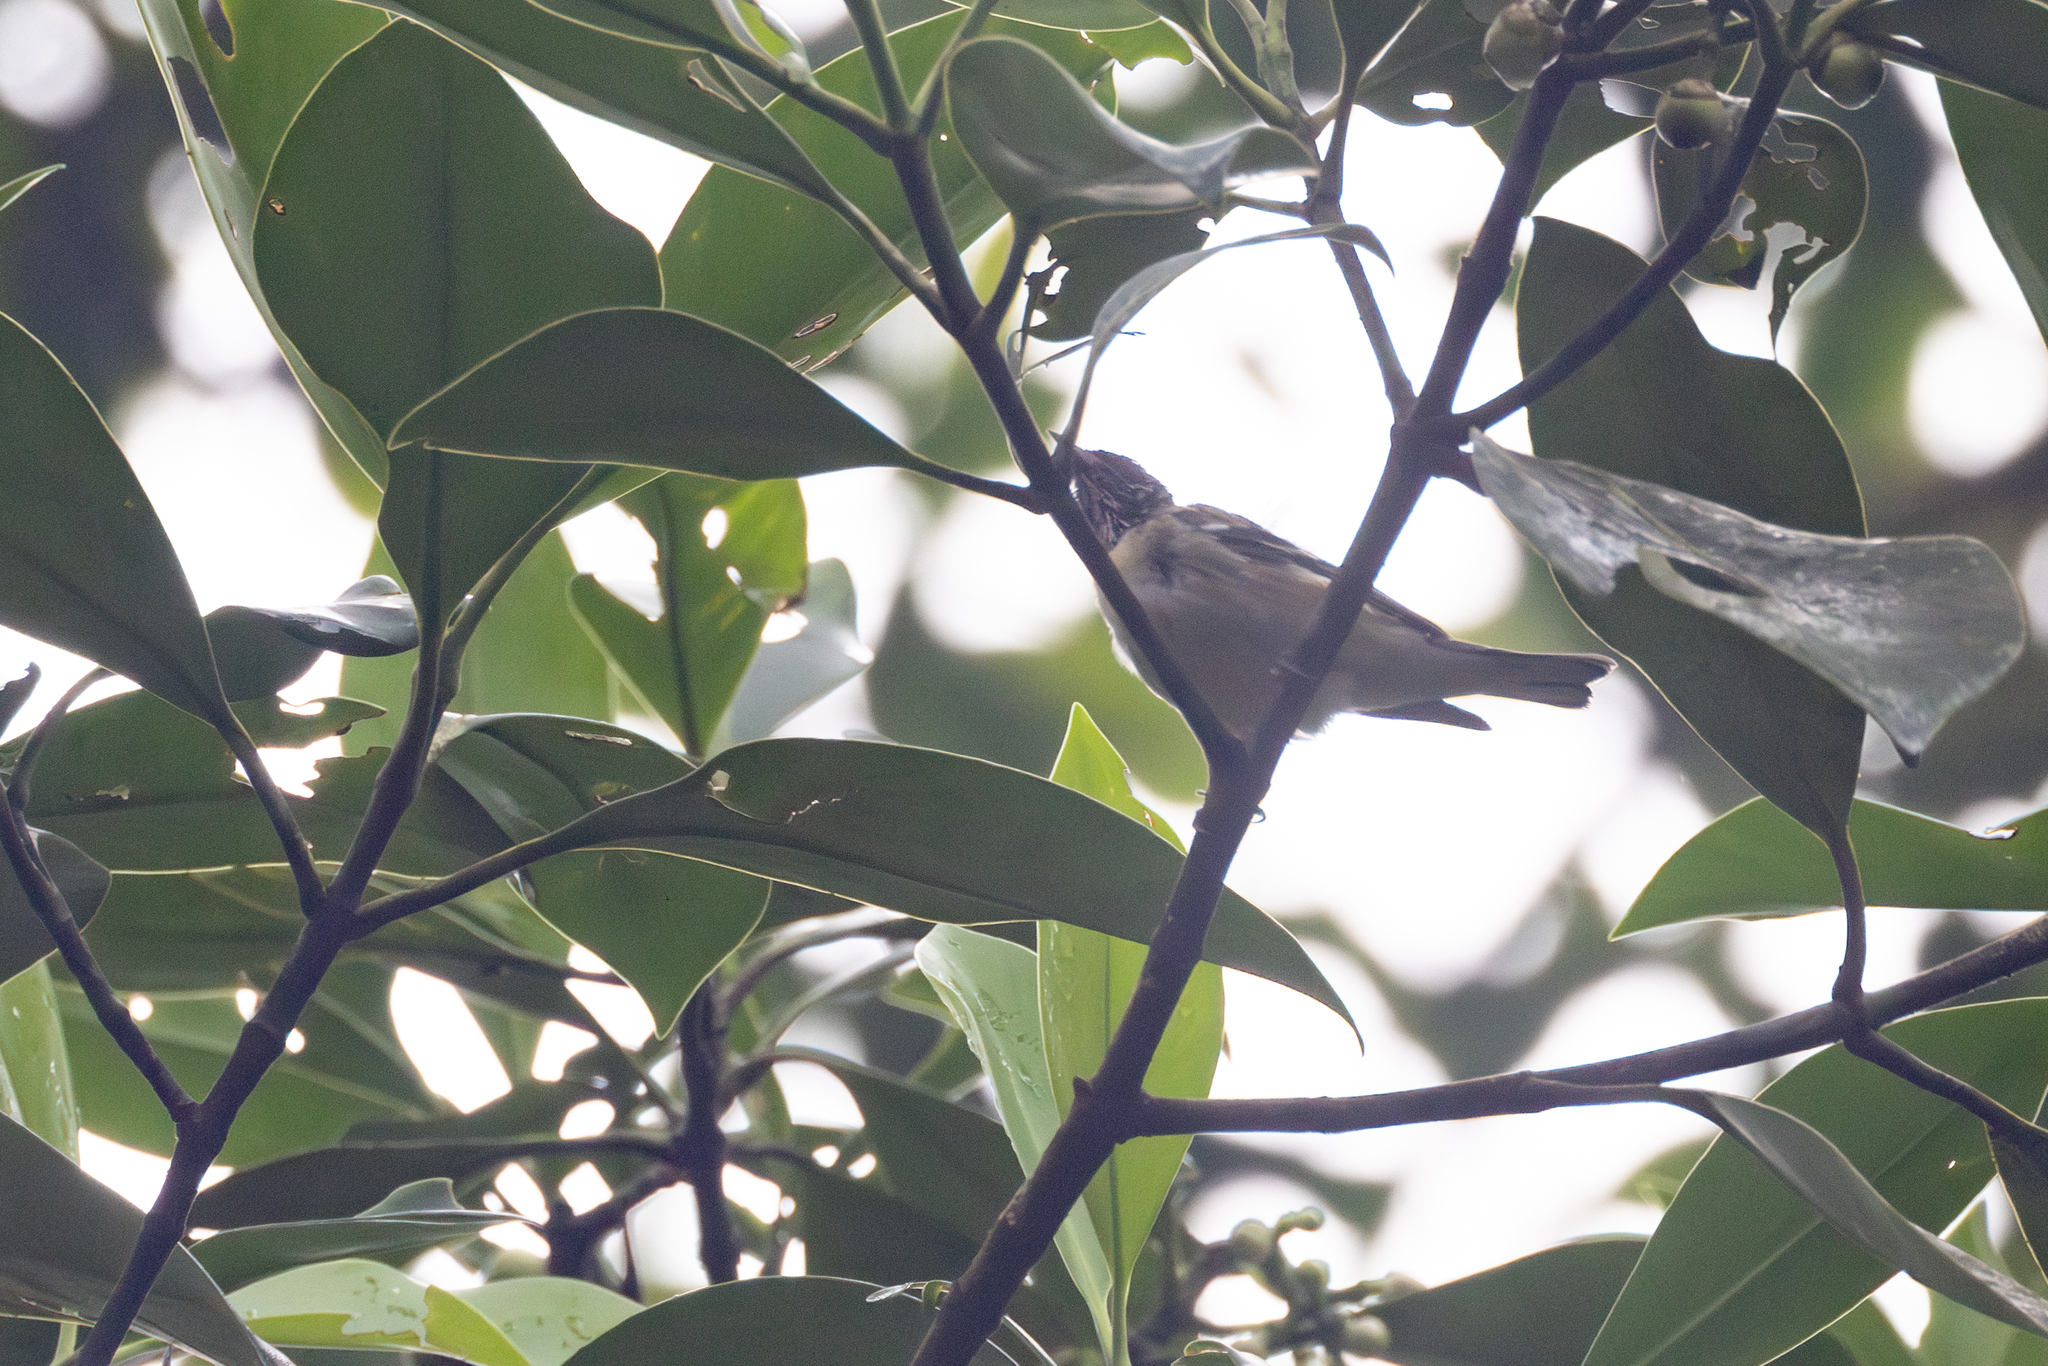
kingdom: Animalia
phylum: Chordata
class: Aves
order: Passeriformes
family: Parulidae
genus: Setophaga
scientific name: Setophaga castanea
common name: Bay-breasted warbler
